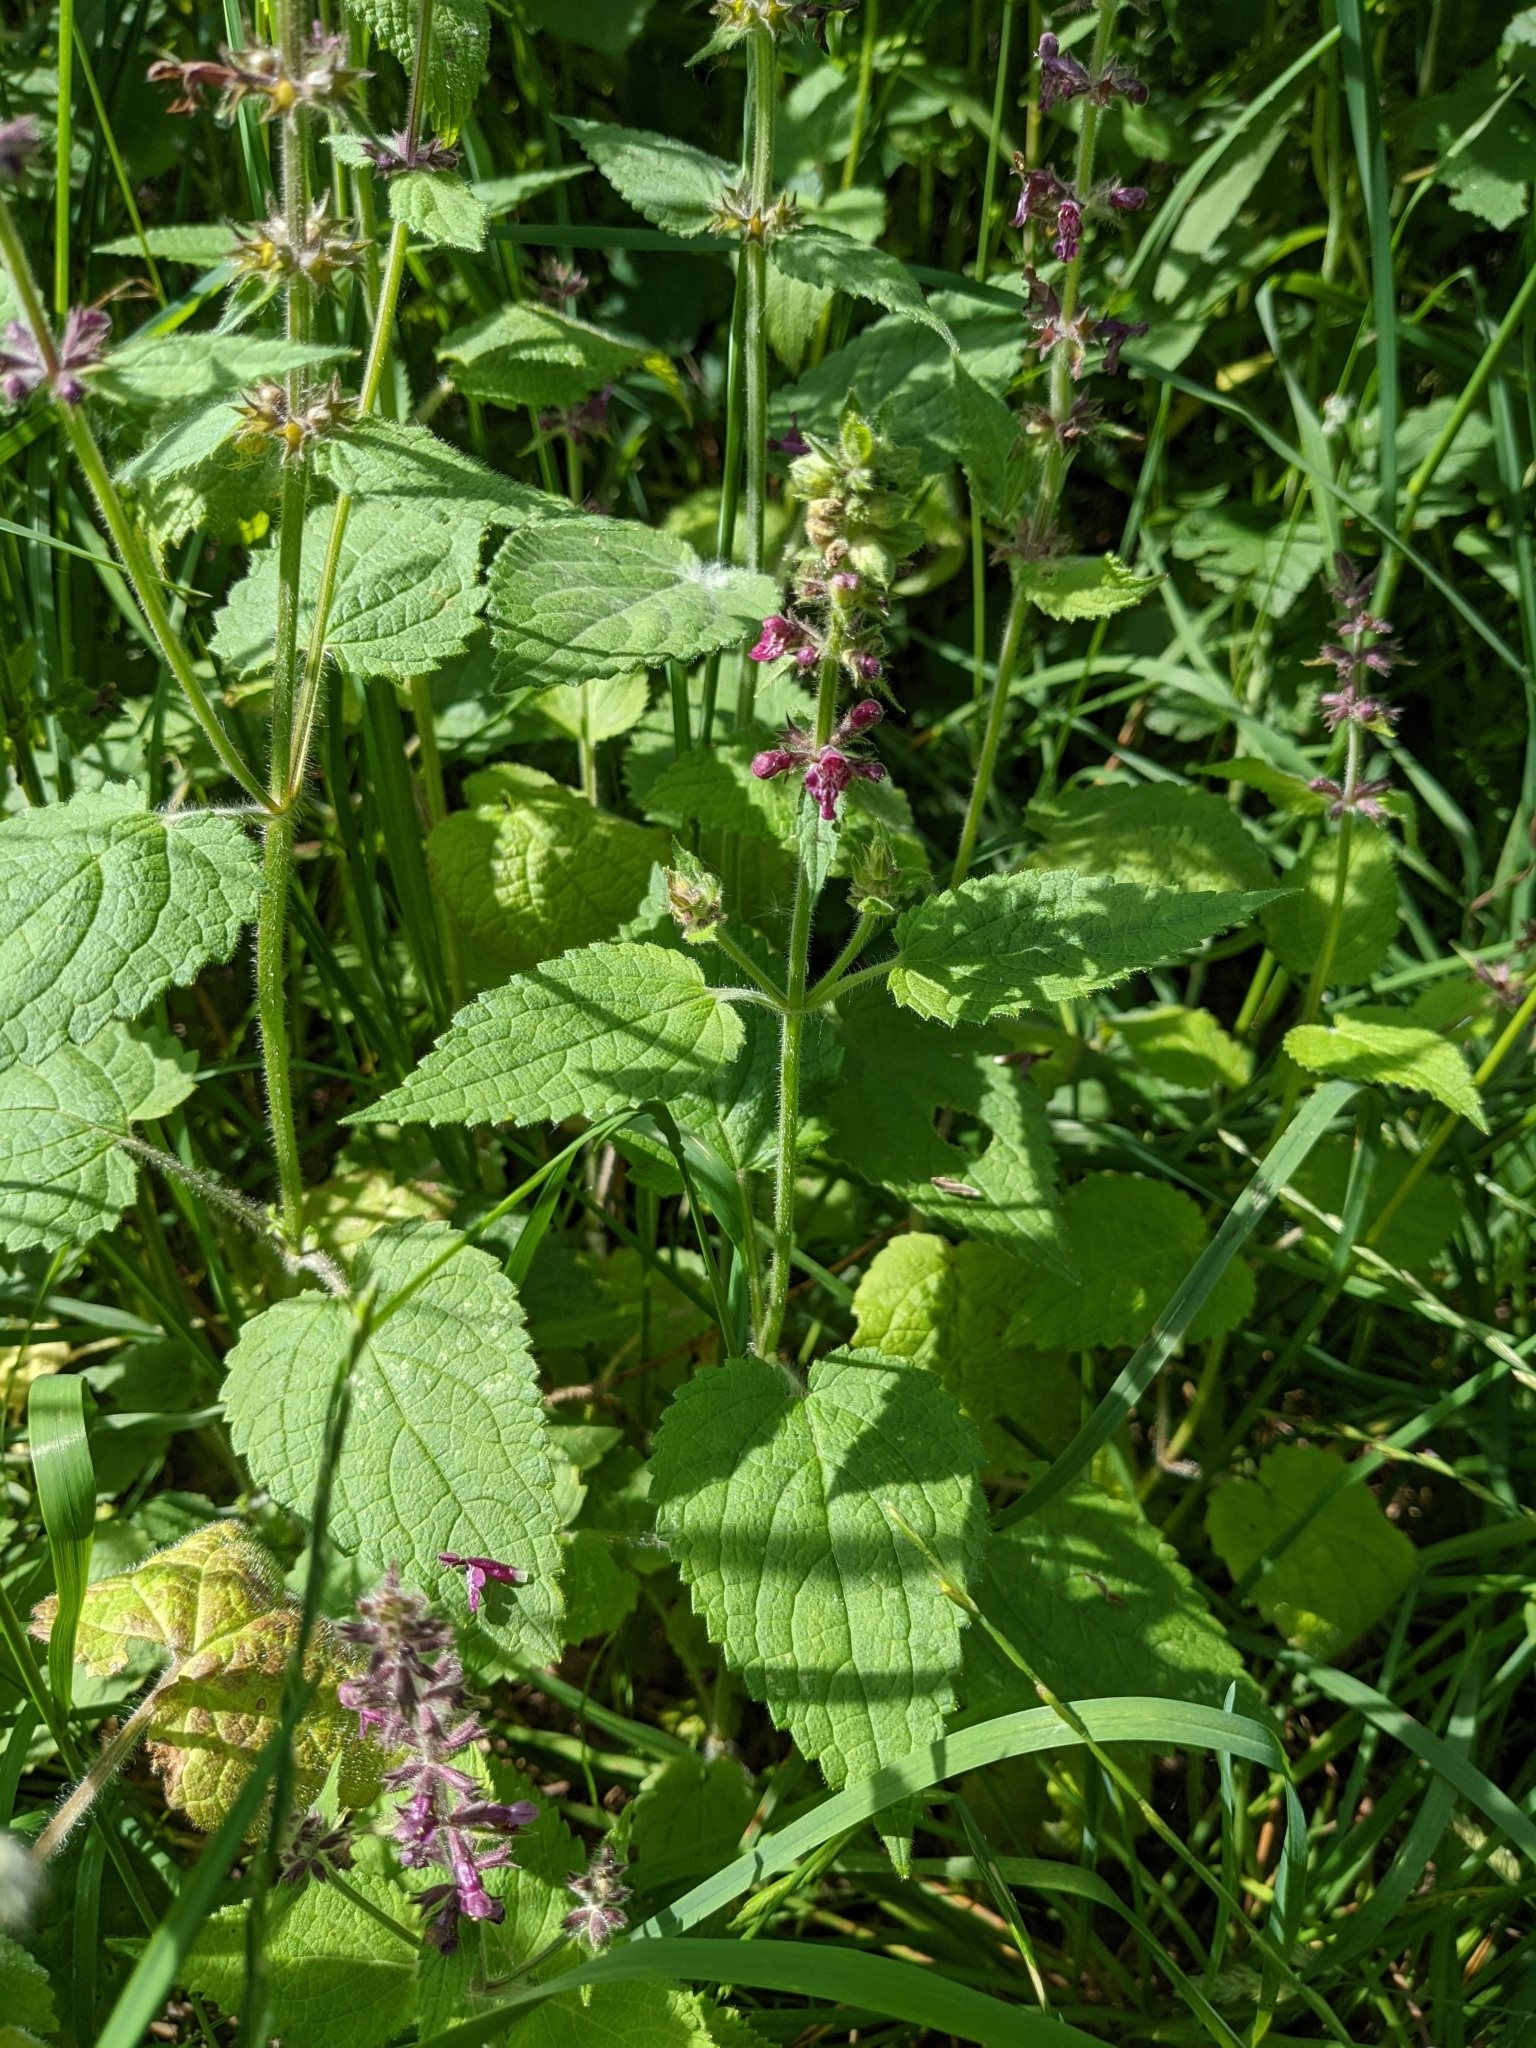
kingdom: Plantae
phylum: Tracheophyta
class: Magnoliopsida
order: Lamiales
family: Lamiaceae
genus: Stachys
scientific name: Stachys sylvatica
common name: Hedge woundwort
